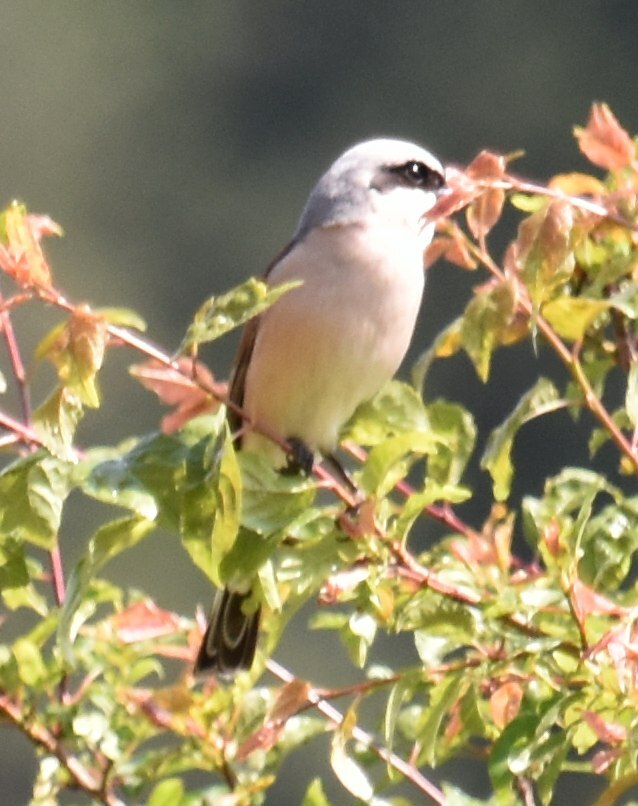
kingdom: Animalia
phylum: Chordata
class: Aves
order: Passeriformes
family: Laniidae
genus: Lanius
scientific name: Lanius collurio
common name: Red-backed shrike
